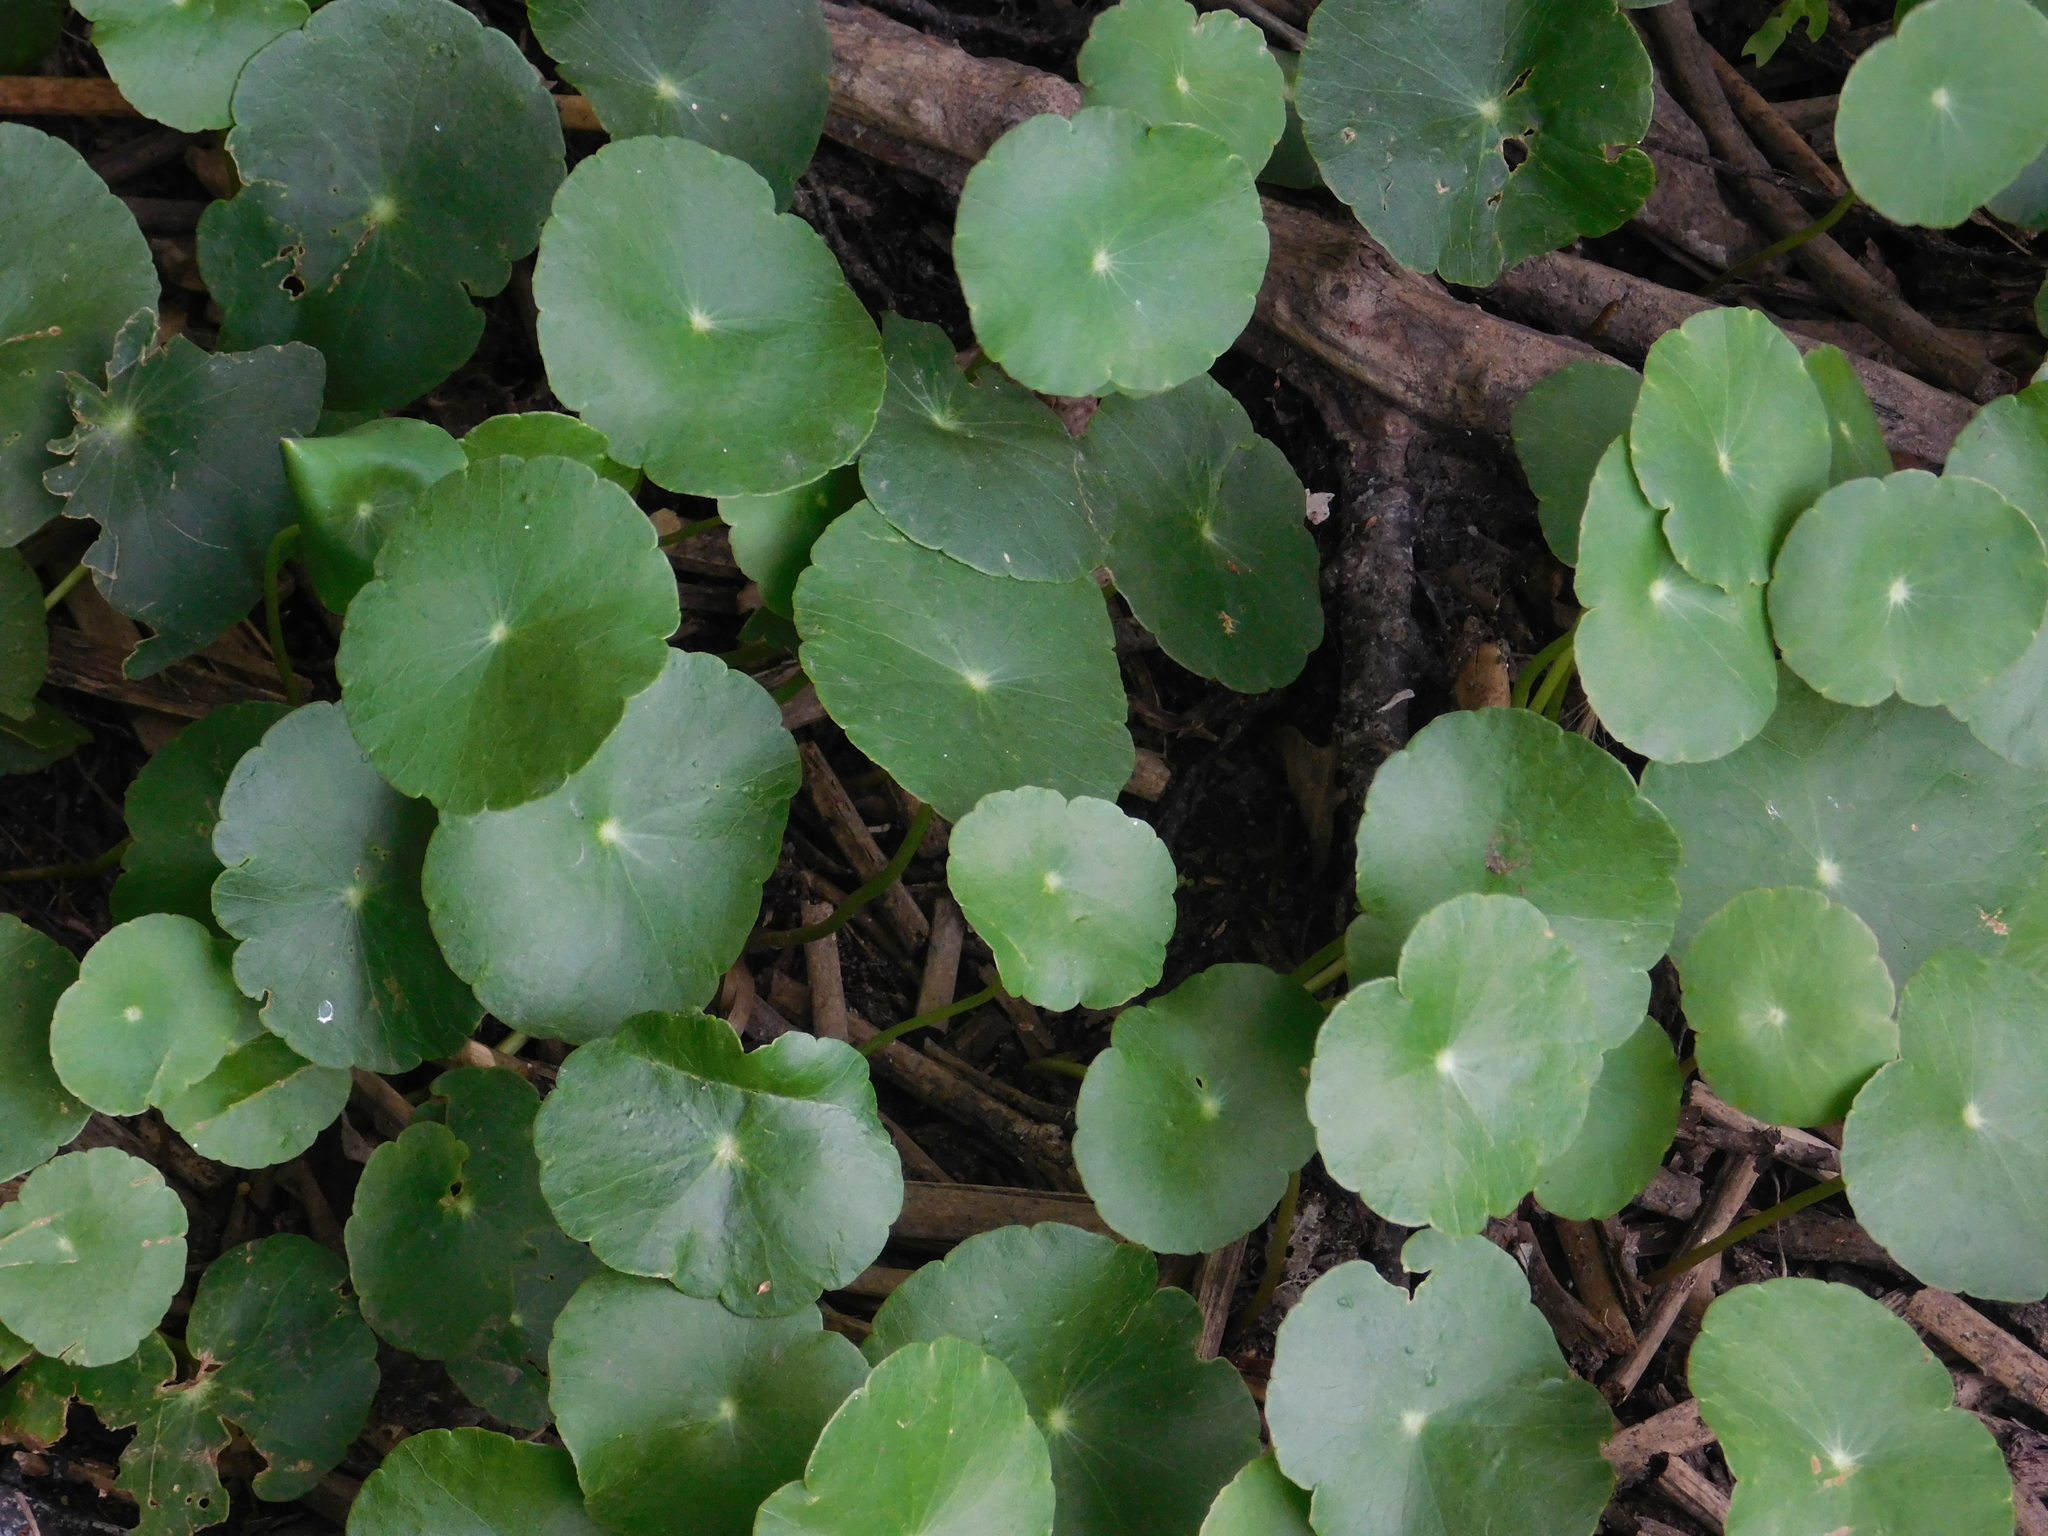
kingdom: Plantae
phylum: Tracheophyta
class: Magnoliopsida
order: Apiales
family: Araliaceae
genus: Hydrocotyle
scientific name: Hydrocotyle bonariensis
